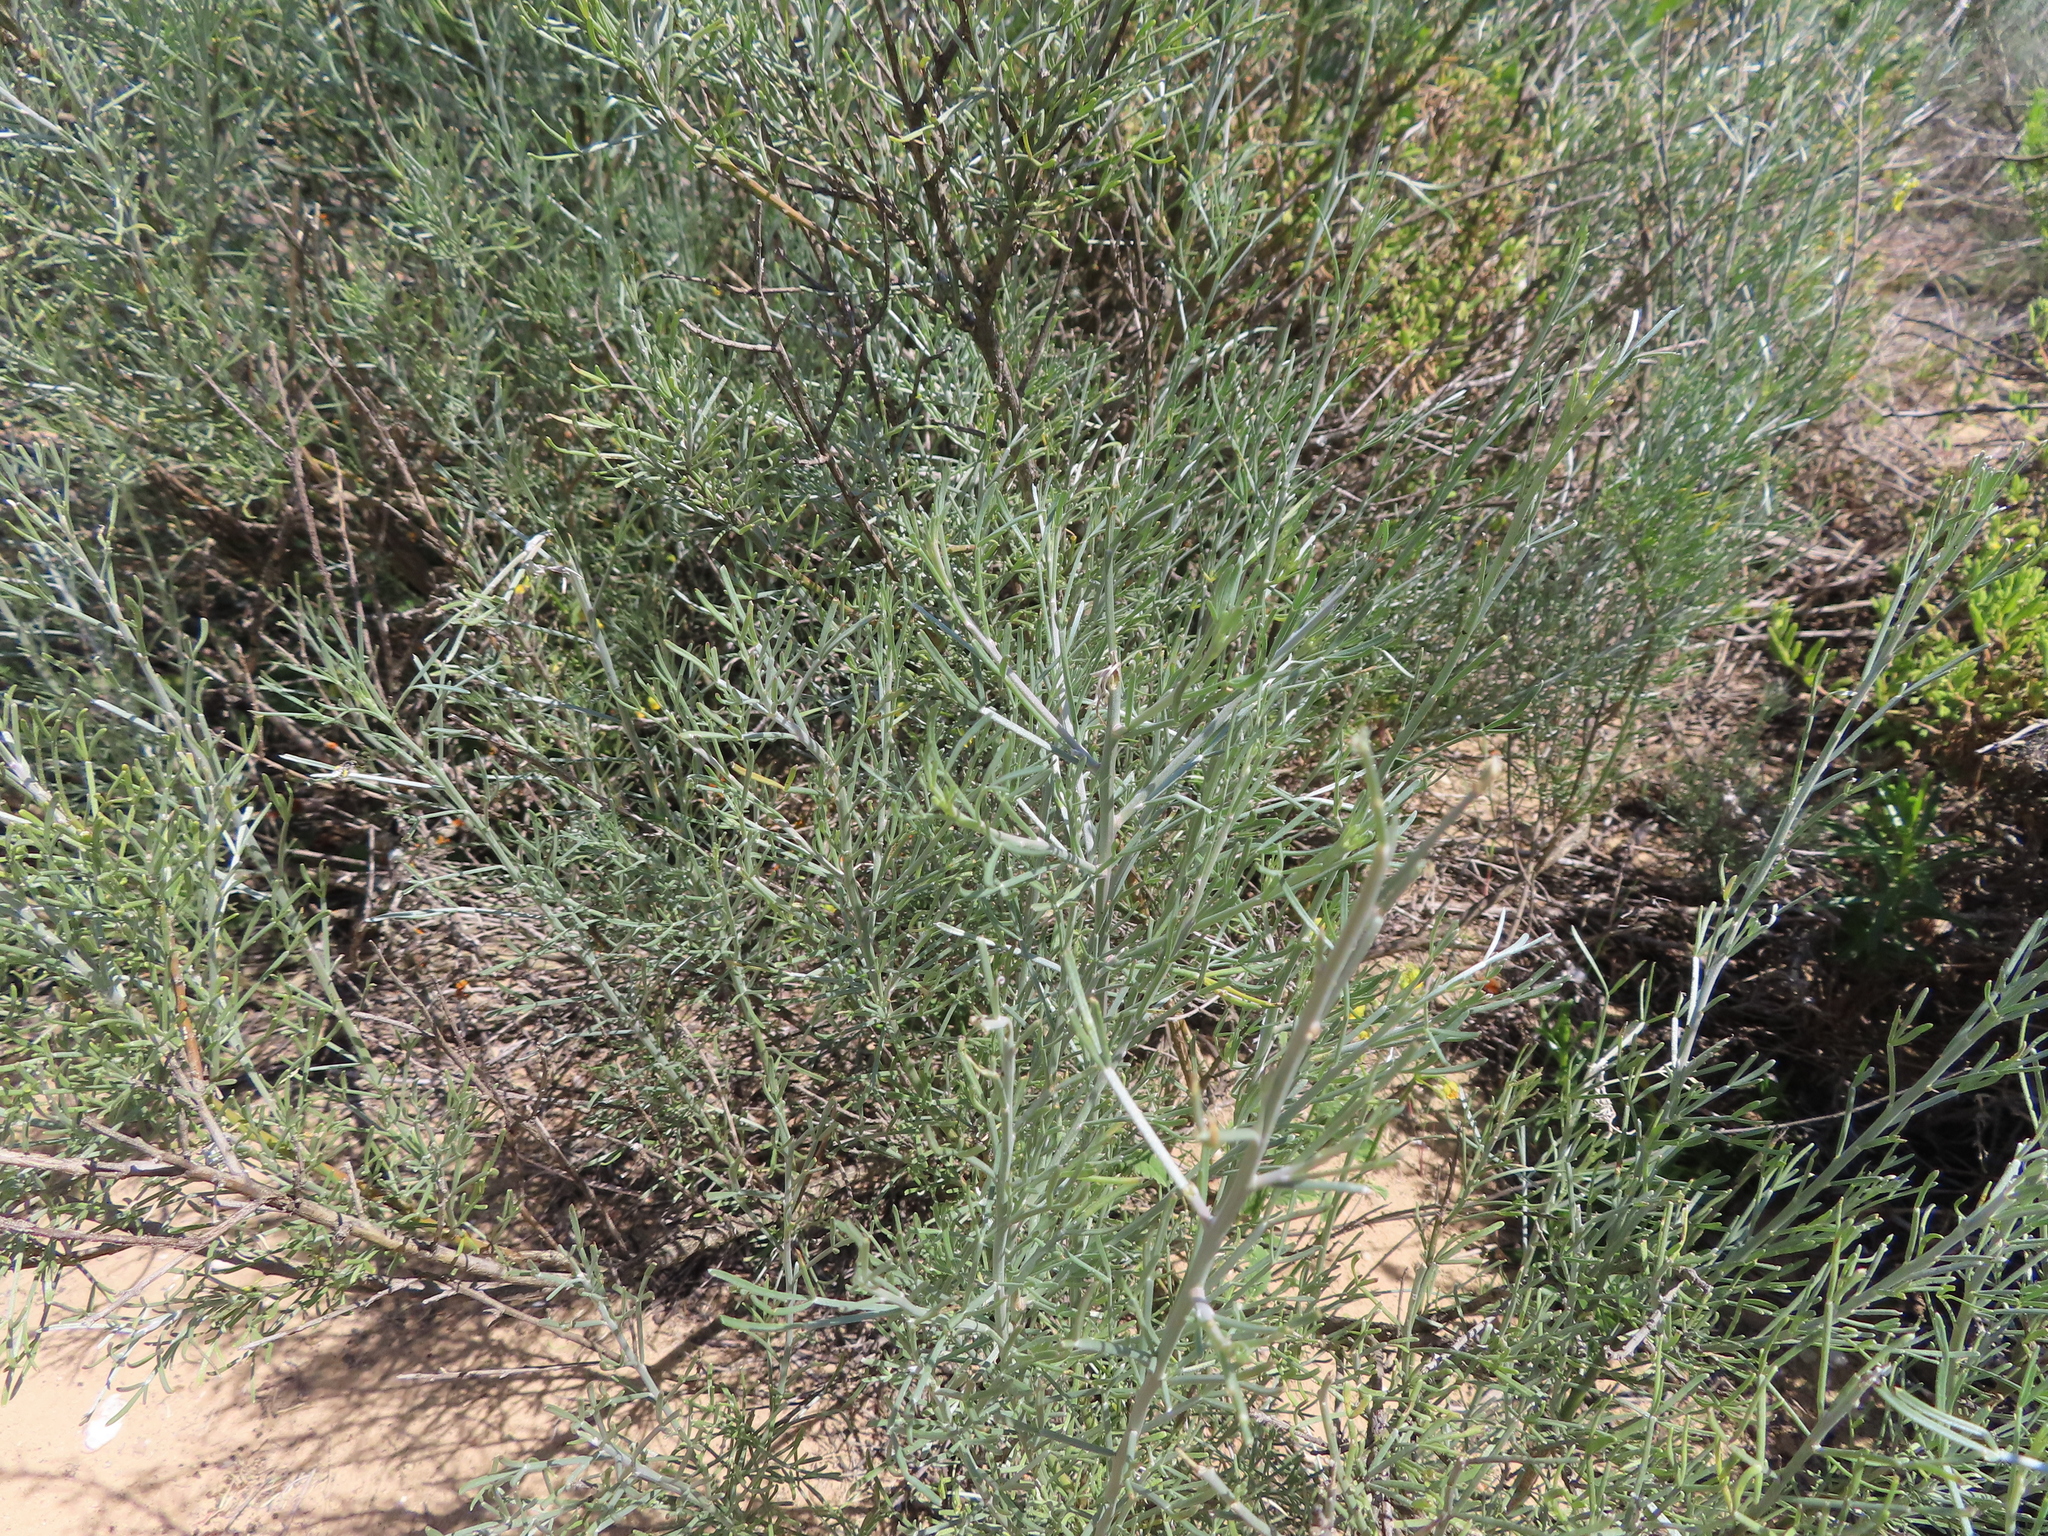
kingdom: Plantae
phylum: Tracheophyta
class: Magnoliopsida
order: Fabales
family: Fabaceae
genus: Calobota
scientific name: Calobota angustifolia
